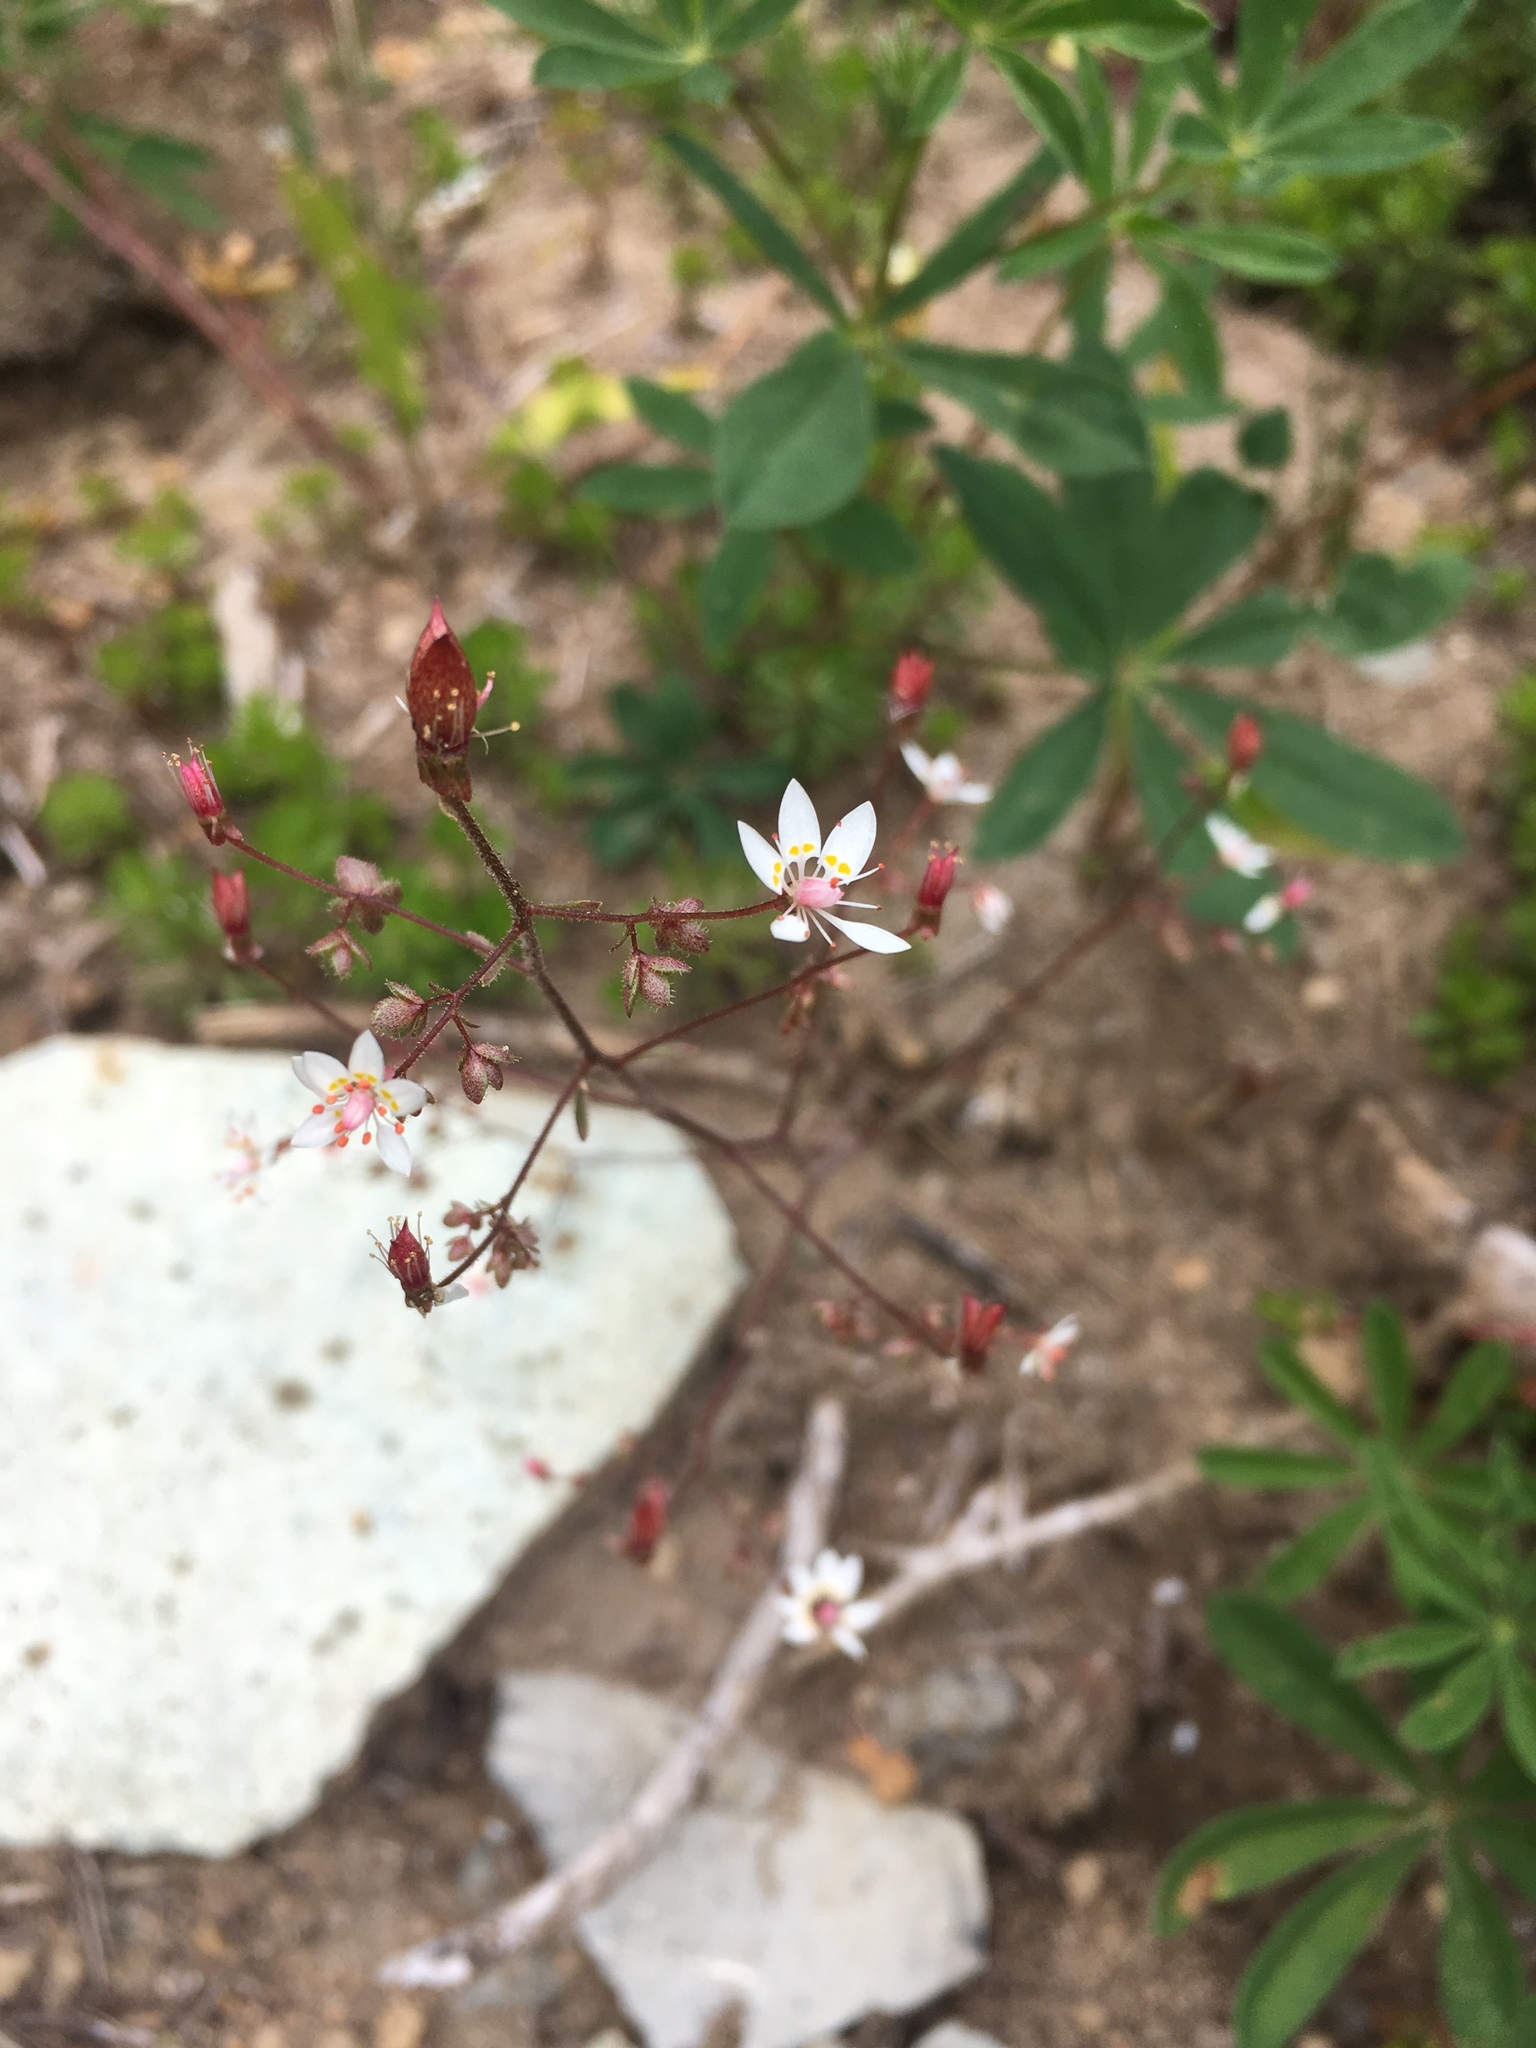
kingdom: Plantae
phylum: Tracheophyta
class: Magnoliopsida
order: Saxifragales
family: Saxifragaceae
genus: Micranthes
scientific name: Micranthes ferruginea
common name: Rusty saxifrage
